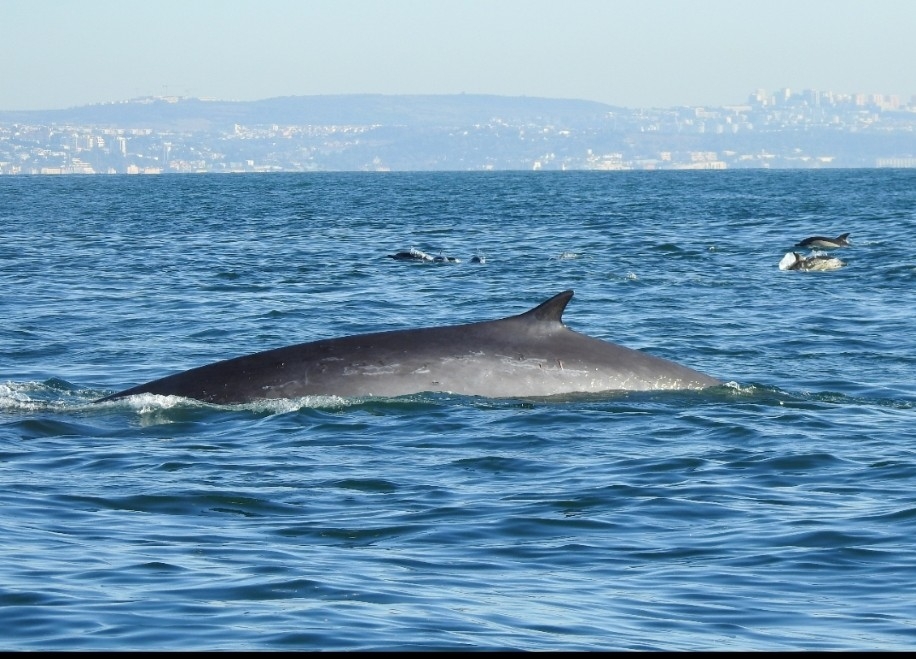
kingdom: Animalia
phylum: Chordata
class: Mammalia
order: Cetacea
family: Balaenopteridae
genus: Balaenoptera
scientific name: Balaenoptera physalus
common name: Fin whale
